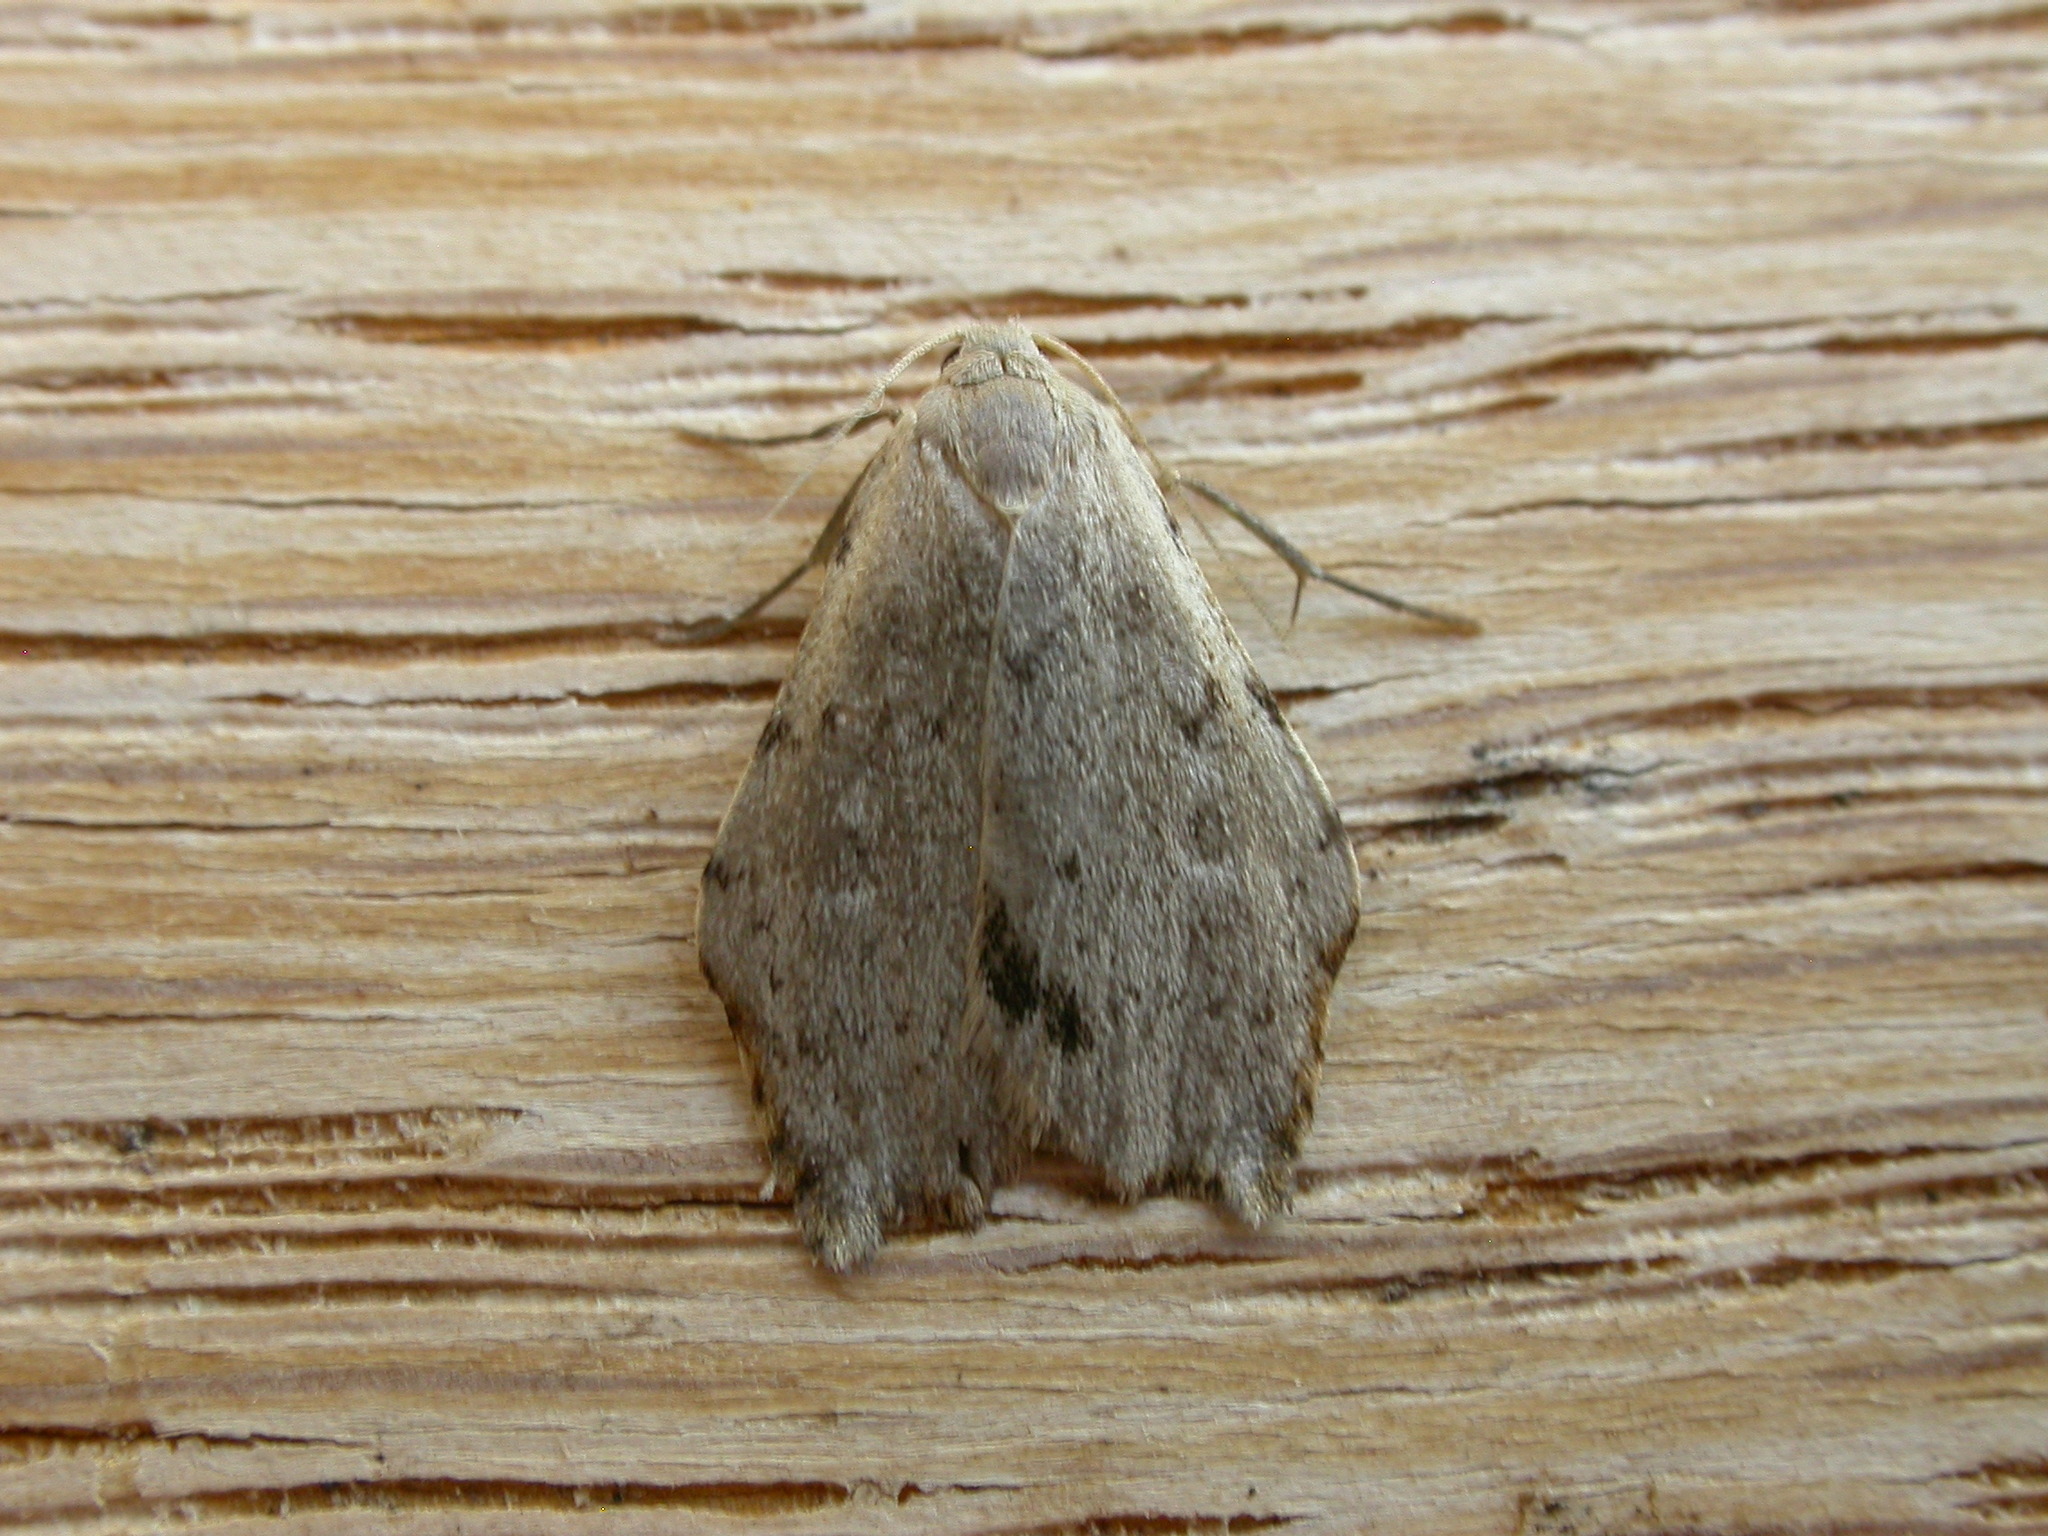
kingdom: Animalia
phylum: Arthropoda
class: Insecta
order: Lepidoptera
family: Erebidae
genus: Macaduma
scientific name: Macaduma toxophora
